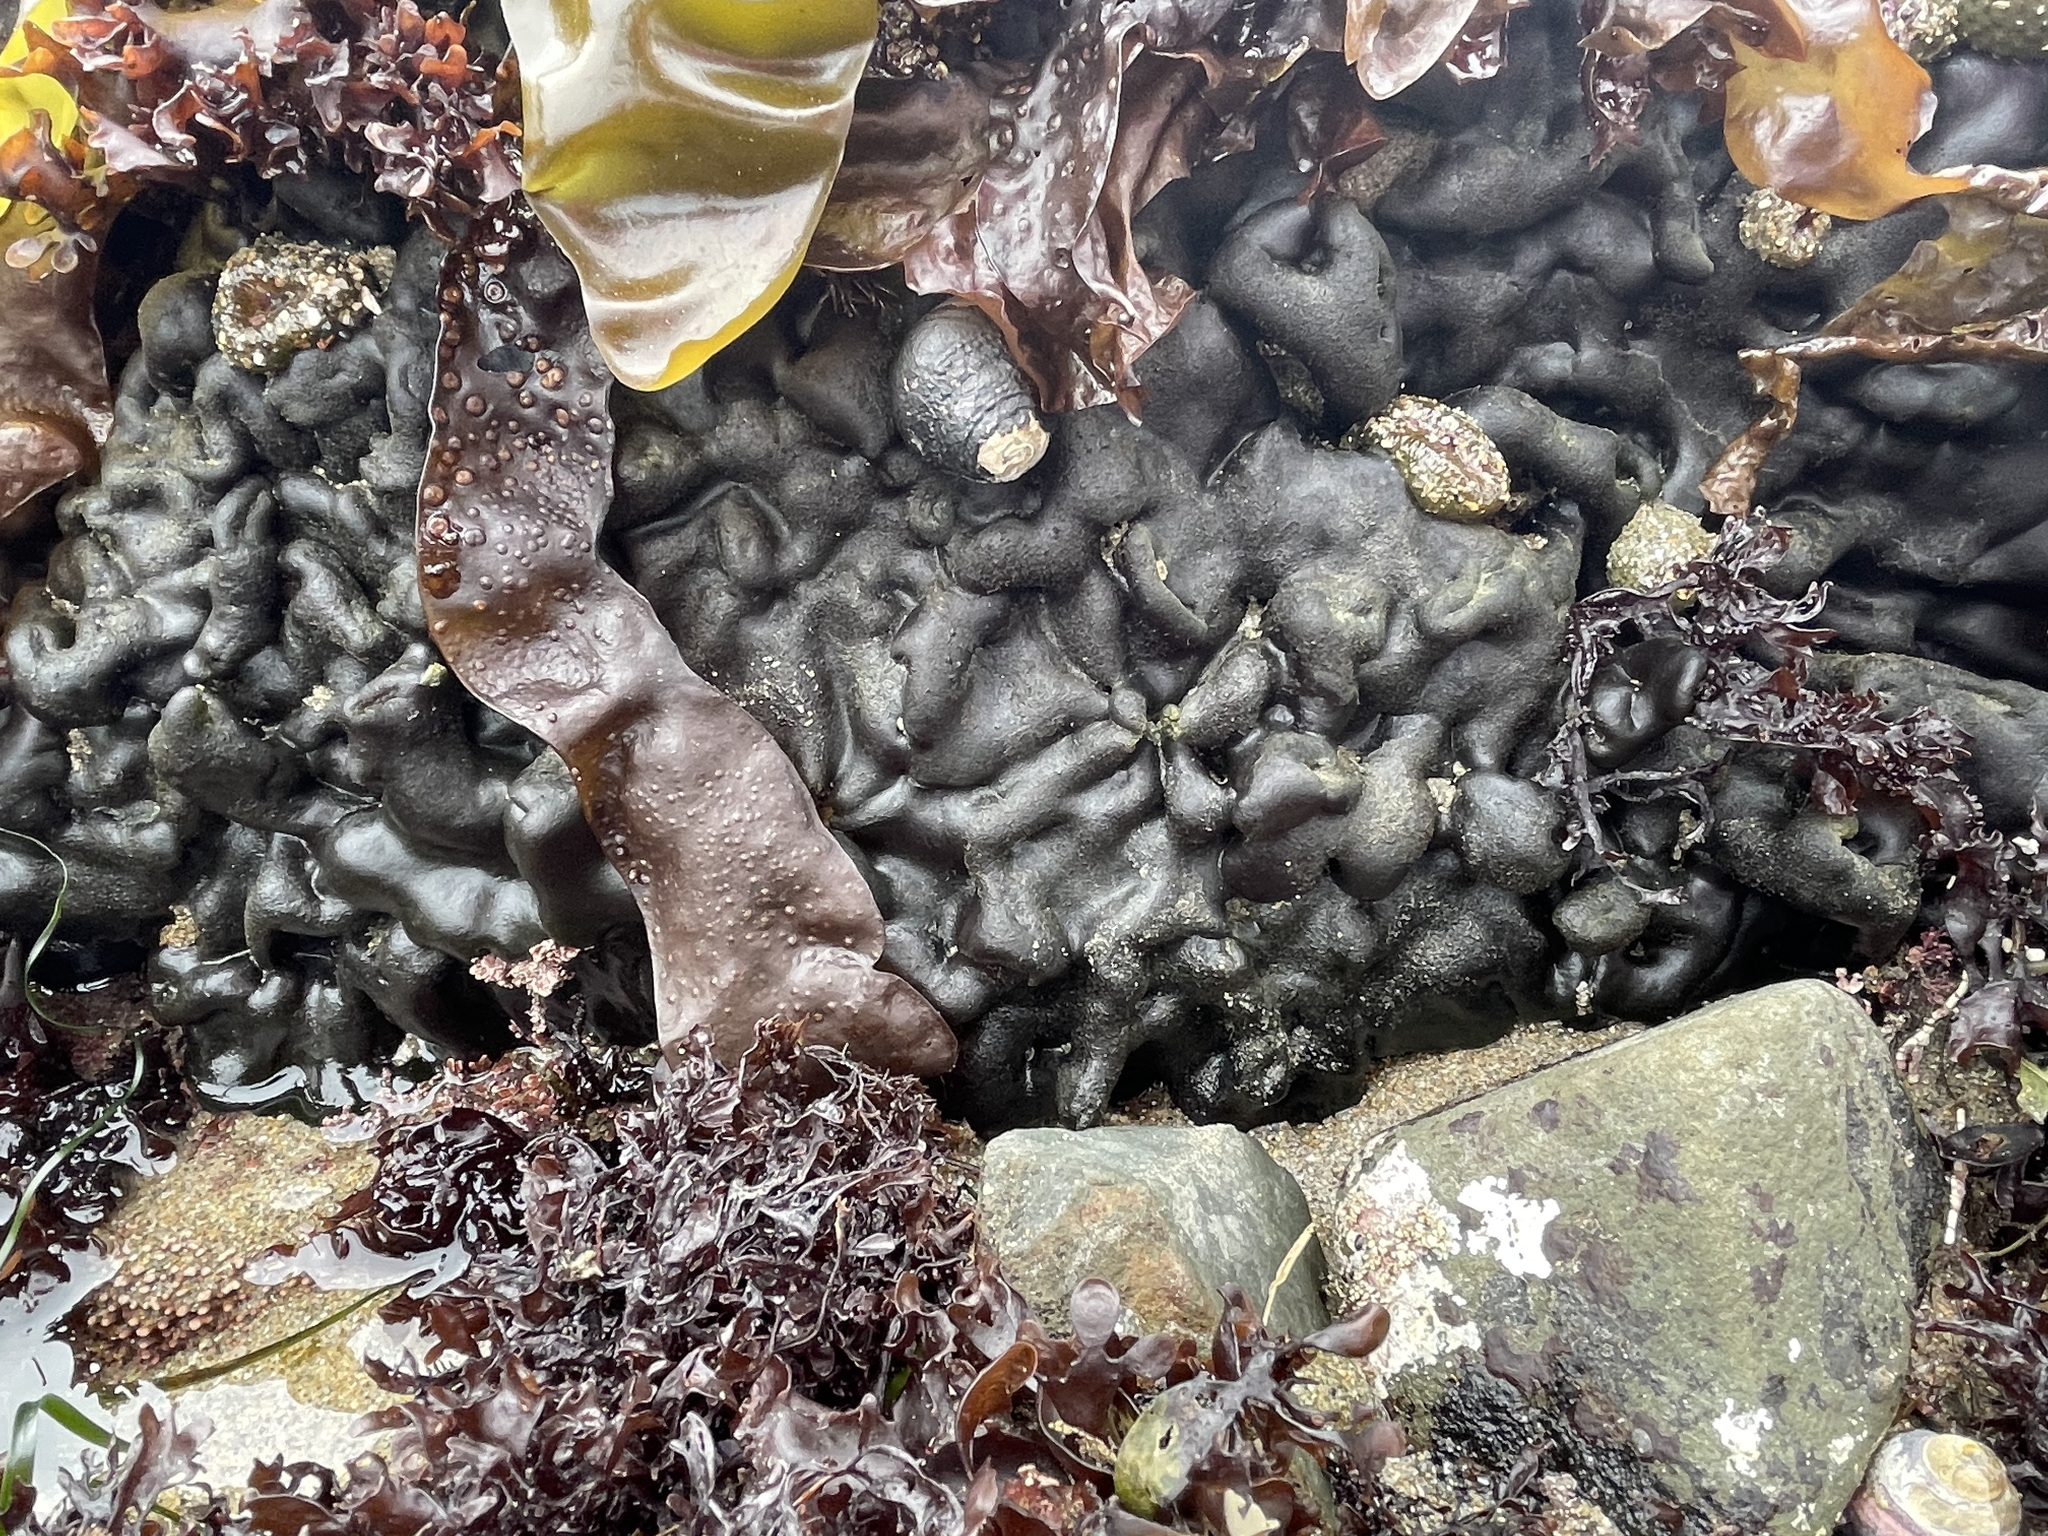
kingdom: Plantae
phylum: Chlorophyta
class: Ulvophyceae
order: Bryopsidales
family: Codiaceae
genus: Codium
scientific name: Codium setchellii
